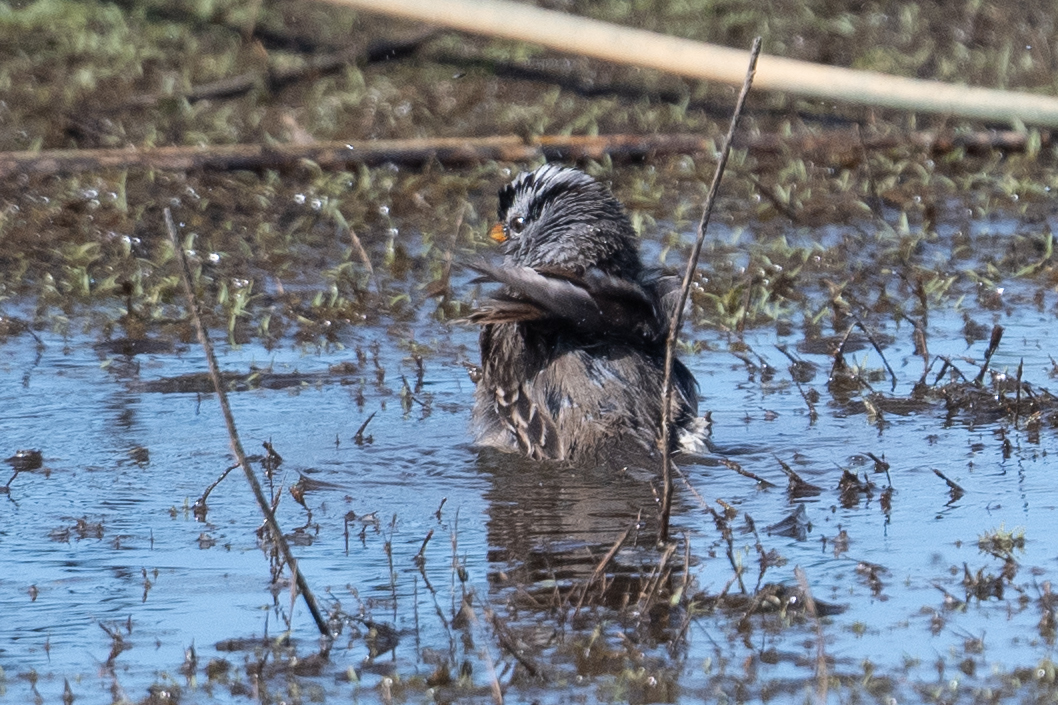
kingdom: Animalia
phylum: Chordata
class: Aves
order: Passeriformes
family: Passerellidae
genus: Zonotrichia
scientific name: Zonotrichia leucophrys
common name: White-crowned sparrow
